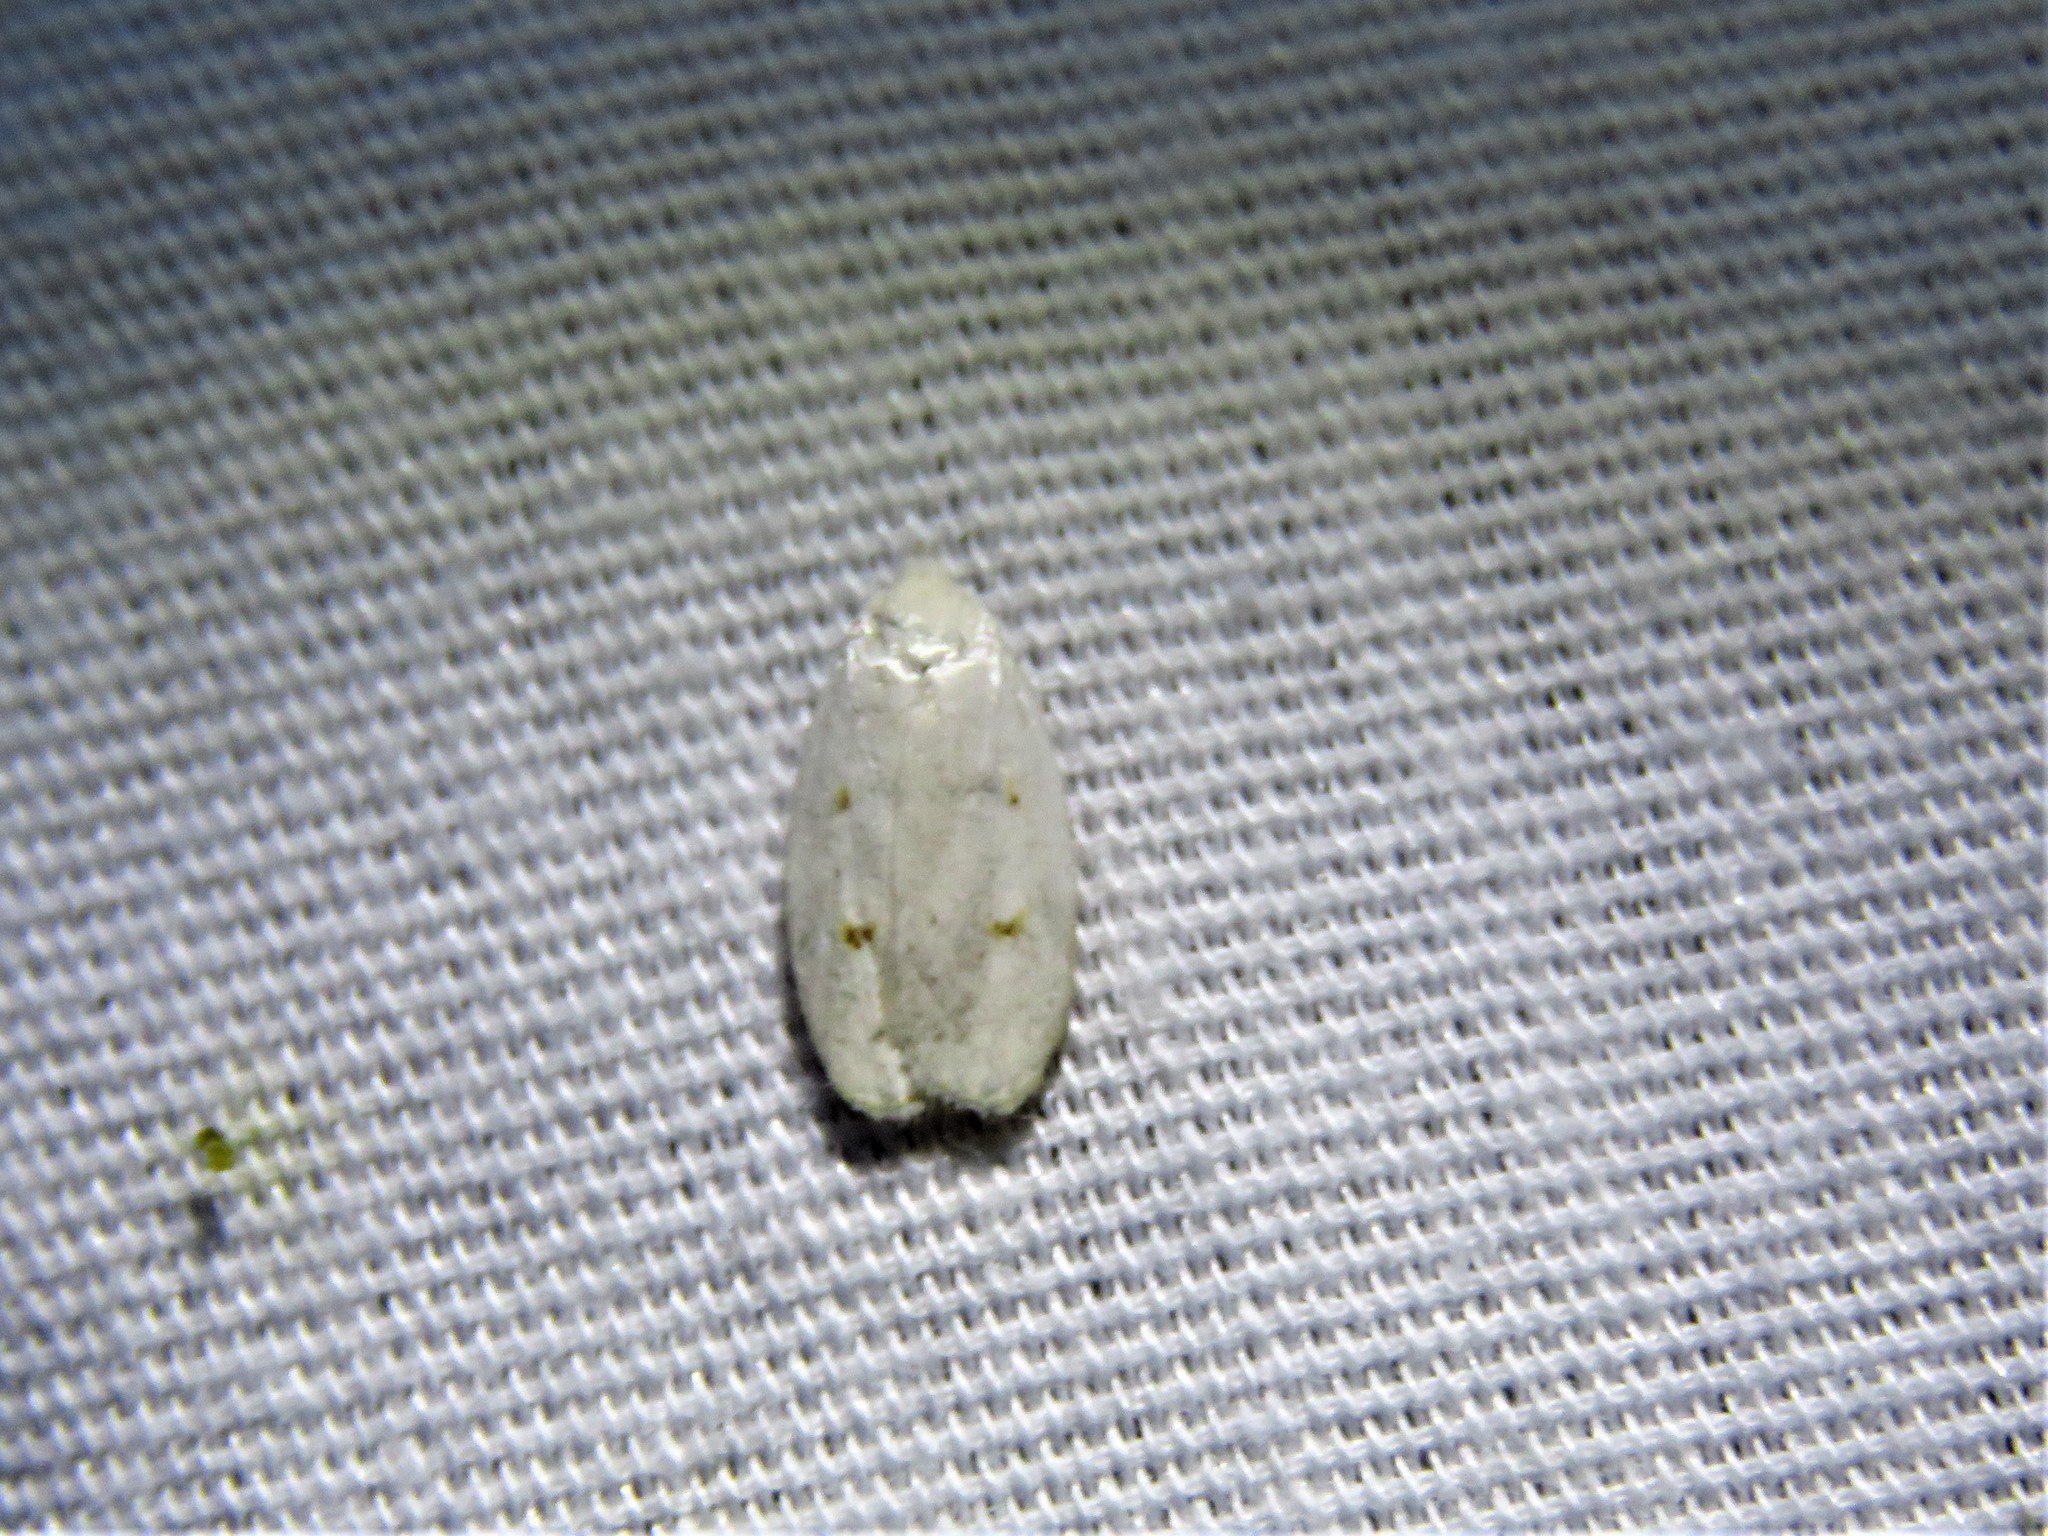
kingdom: Animalia
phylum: Arthropoda
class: Insecta
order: Lepidoptera
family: Peleopodidae
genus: Durrantia
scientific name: Durrantia piperatella
